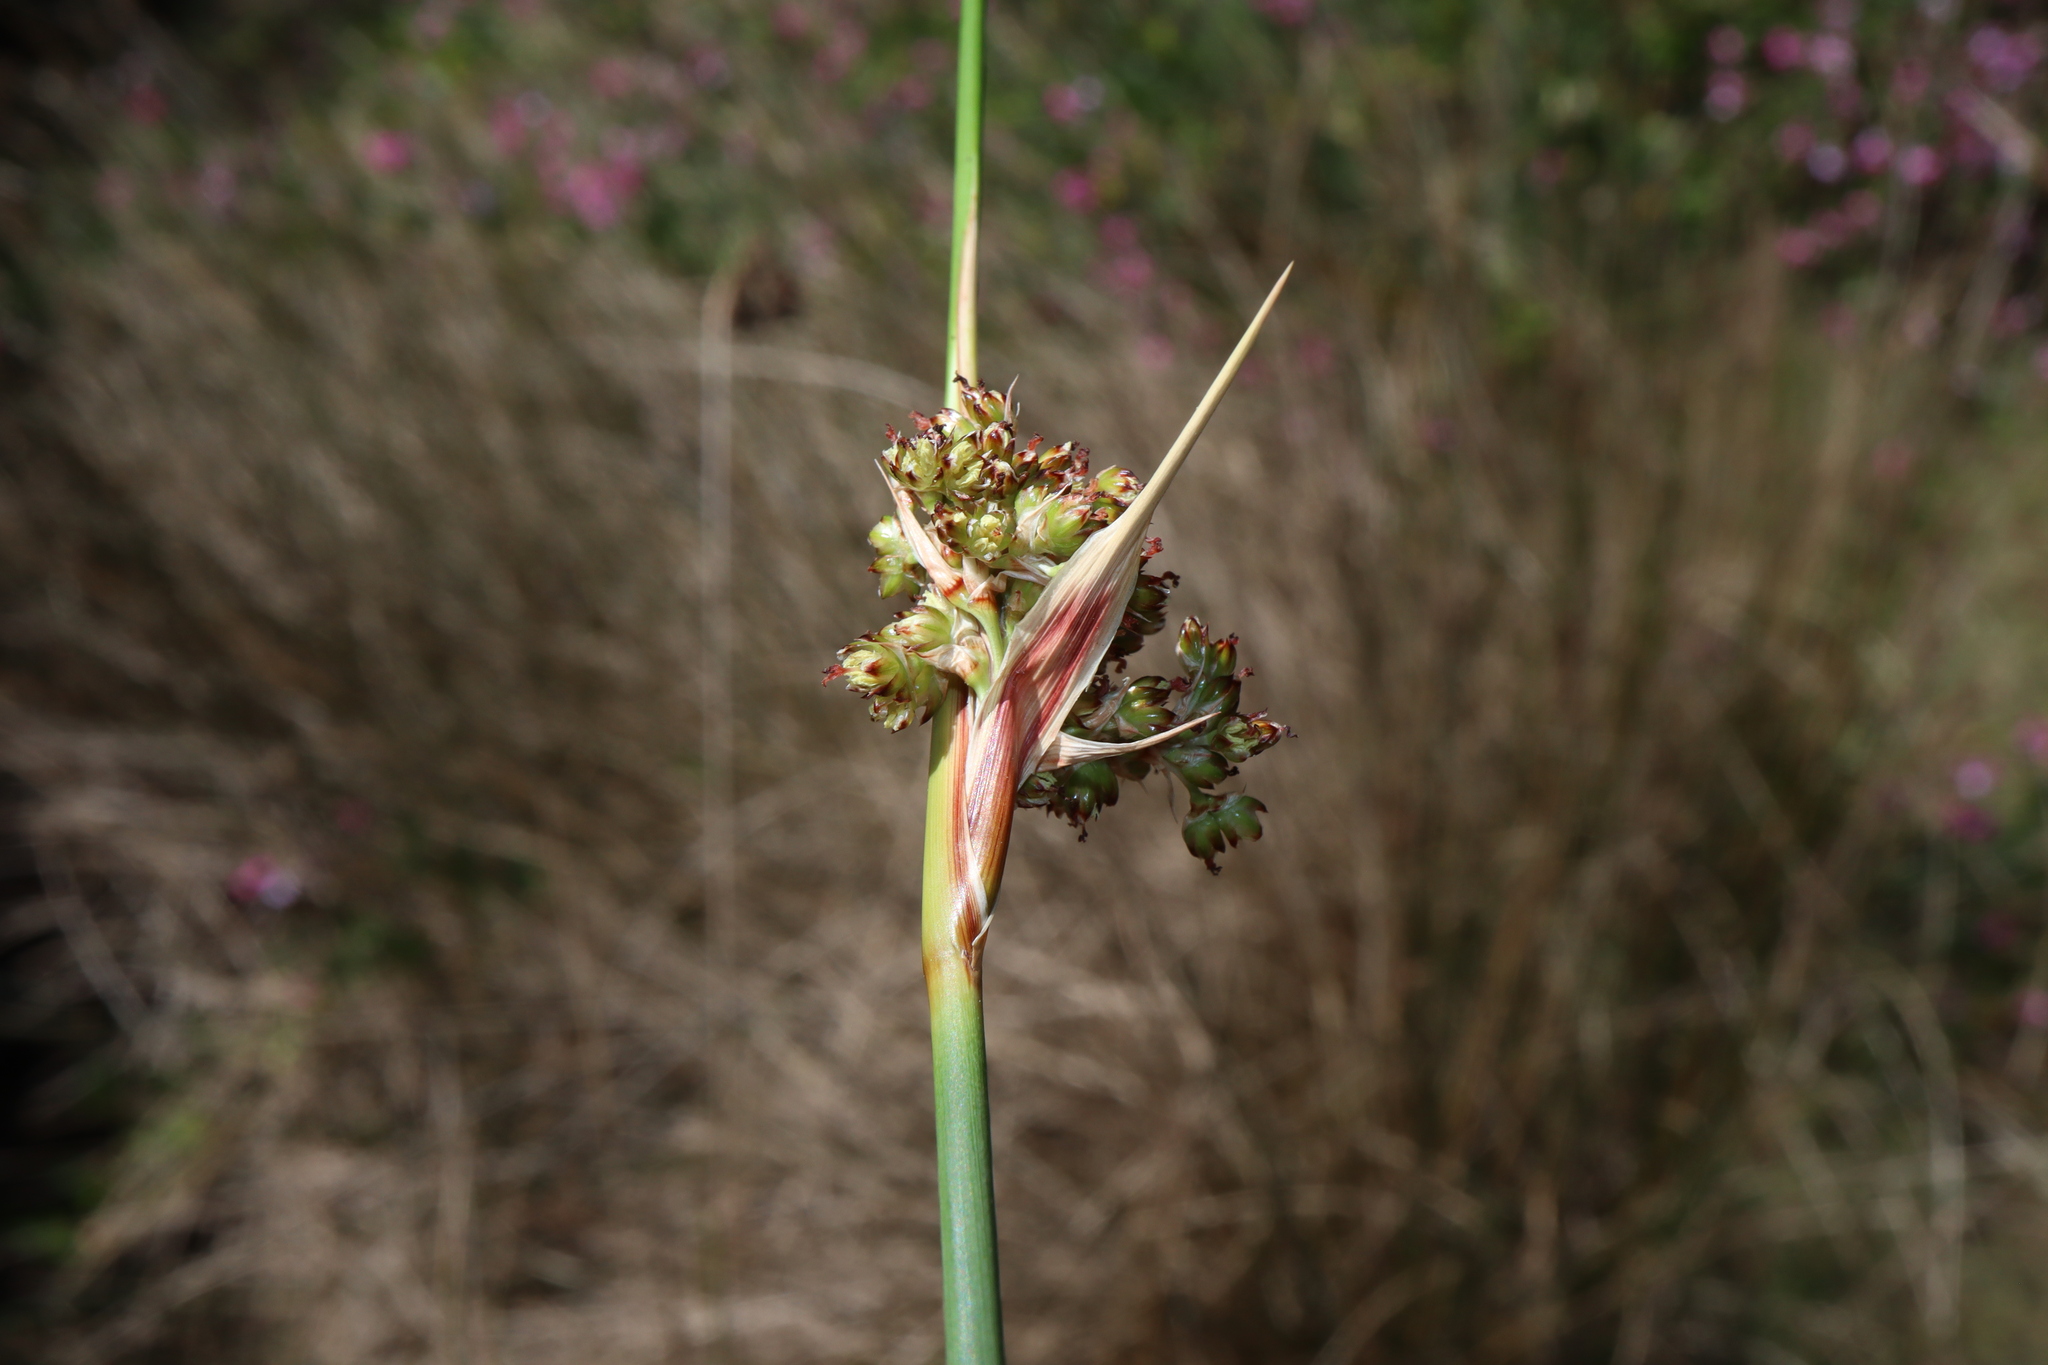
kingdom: Plantae
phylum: Tracheophyta
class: Liliopsida
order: Poales
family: Juncaceae
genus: Juncus
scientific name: Juncus acutus
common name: Sharp rush
